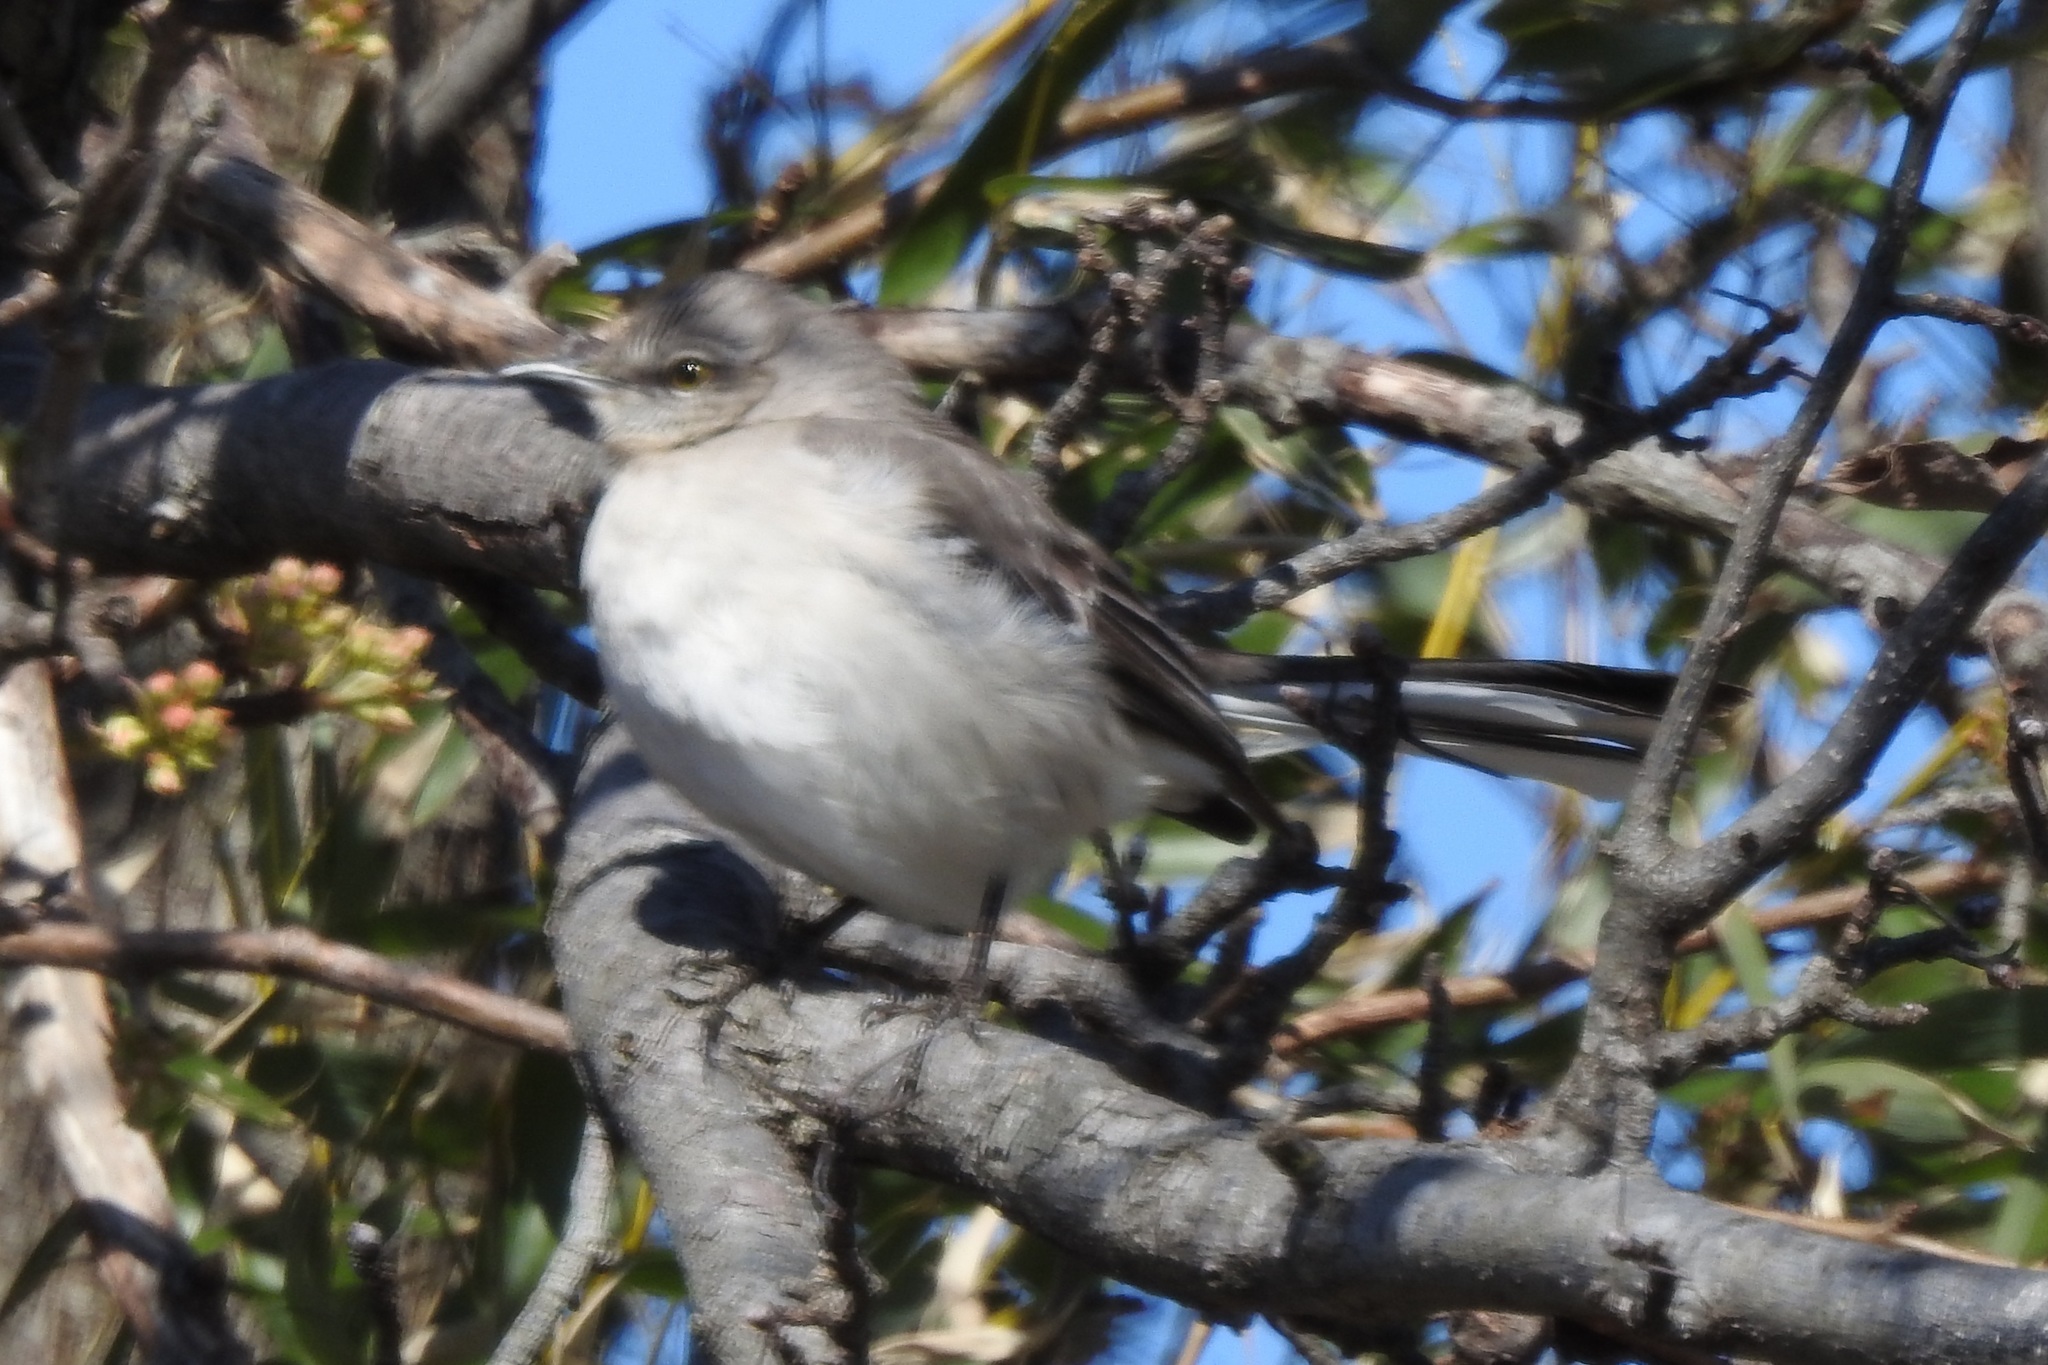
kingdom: Animalia
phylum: Chordata
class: Aves
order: Passeriformes
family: Mimidae
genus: Mimus
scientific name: Mimus polyglottos
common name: Northern mockingbird
